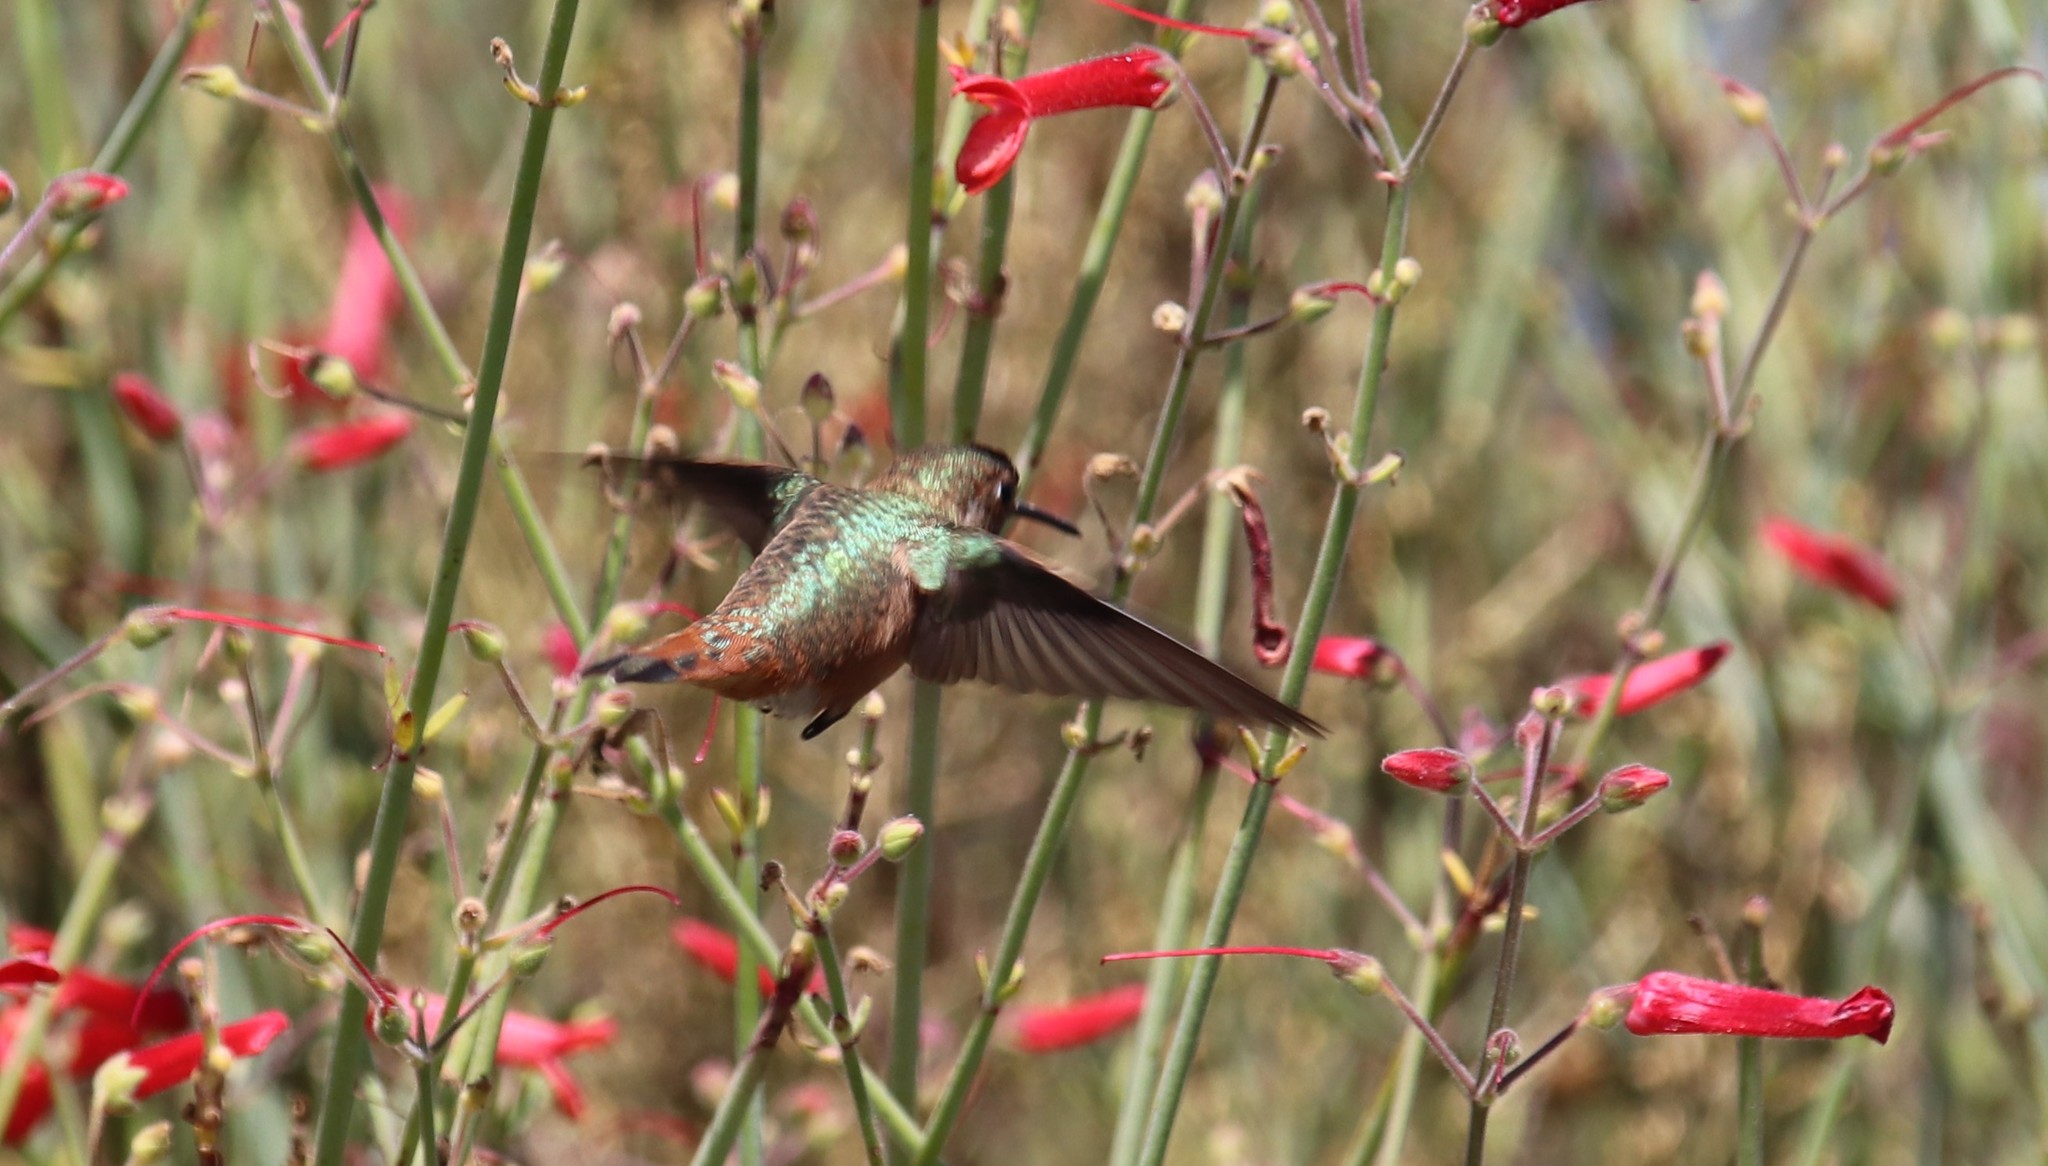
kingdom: Animalia
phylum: Chordata
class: Aves
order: Apodiformes
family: Trochilidae
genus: Selasphorus
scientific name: Selasphorus
